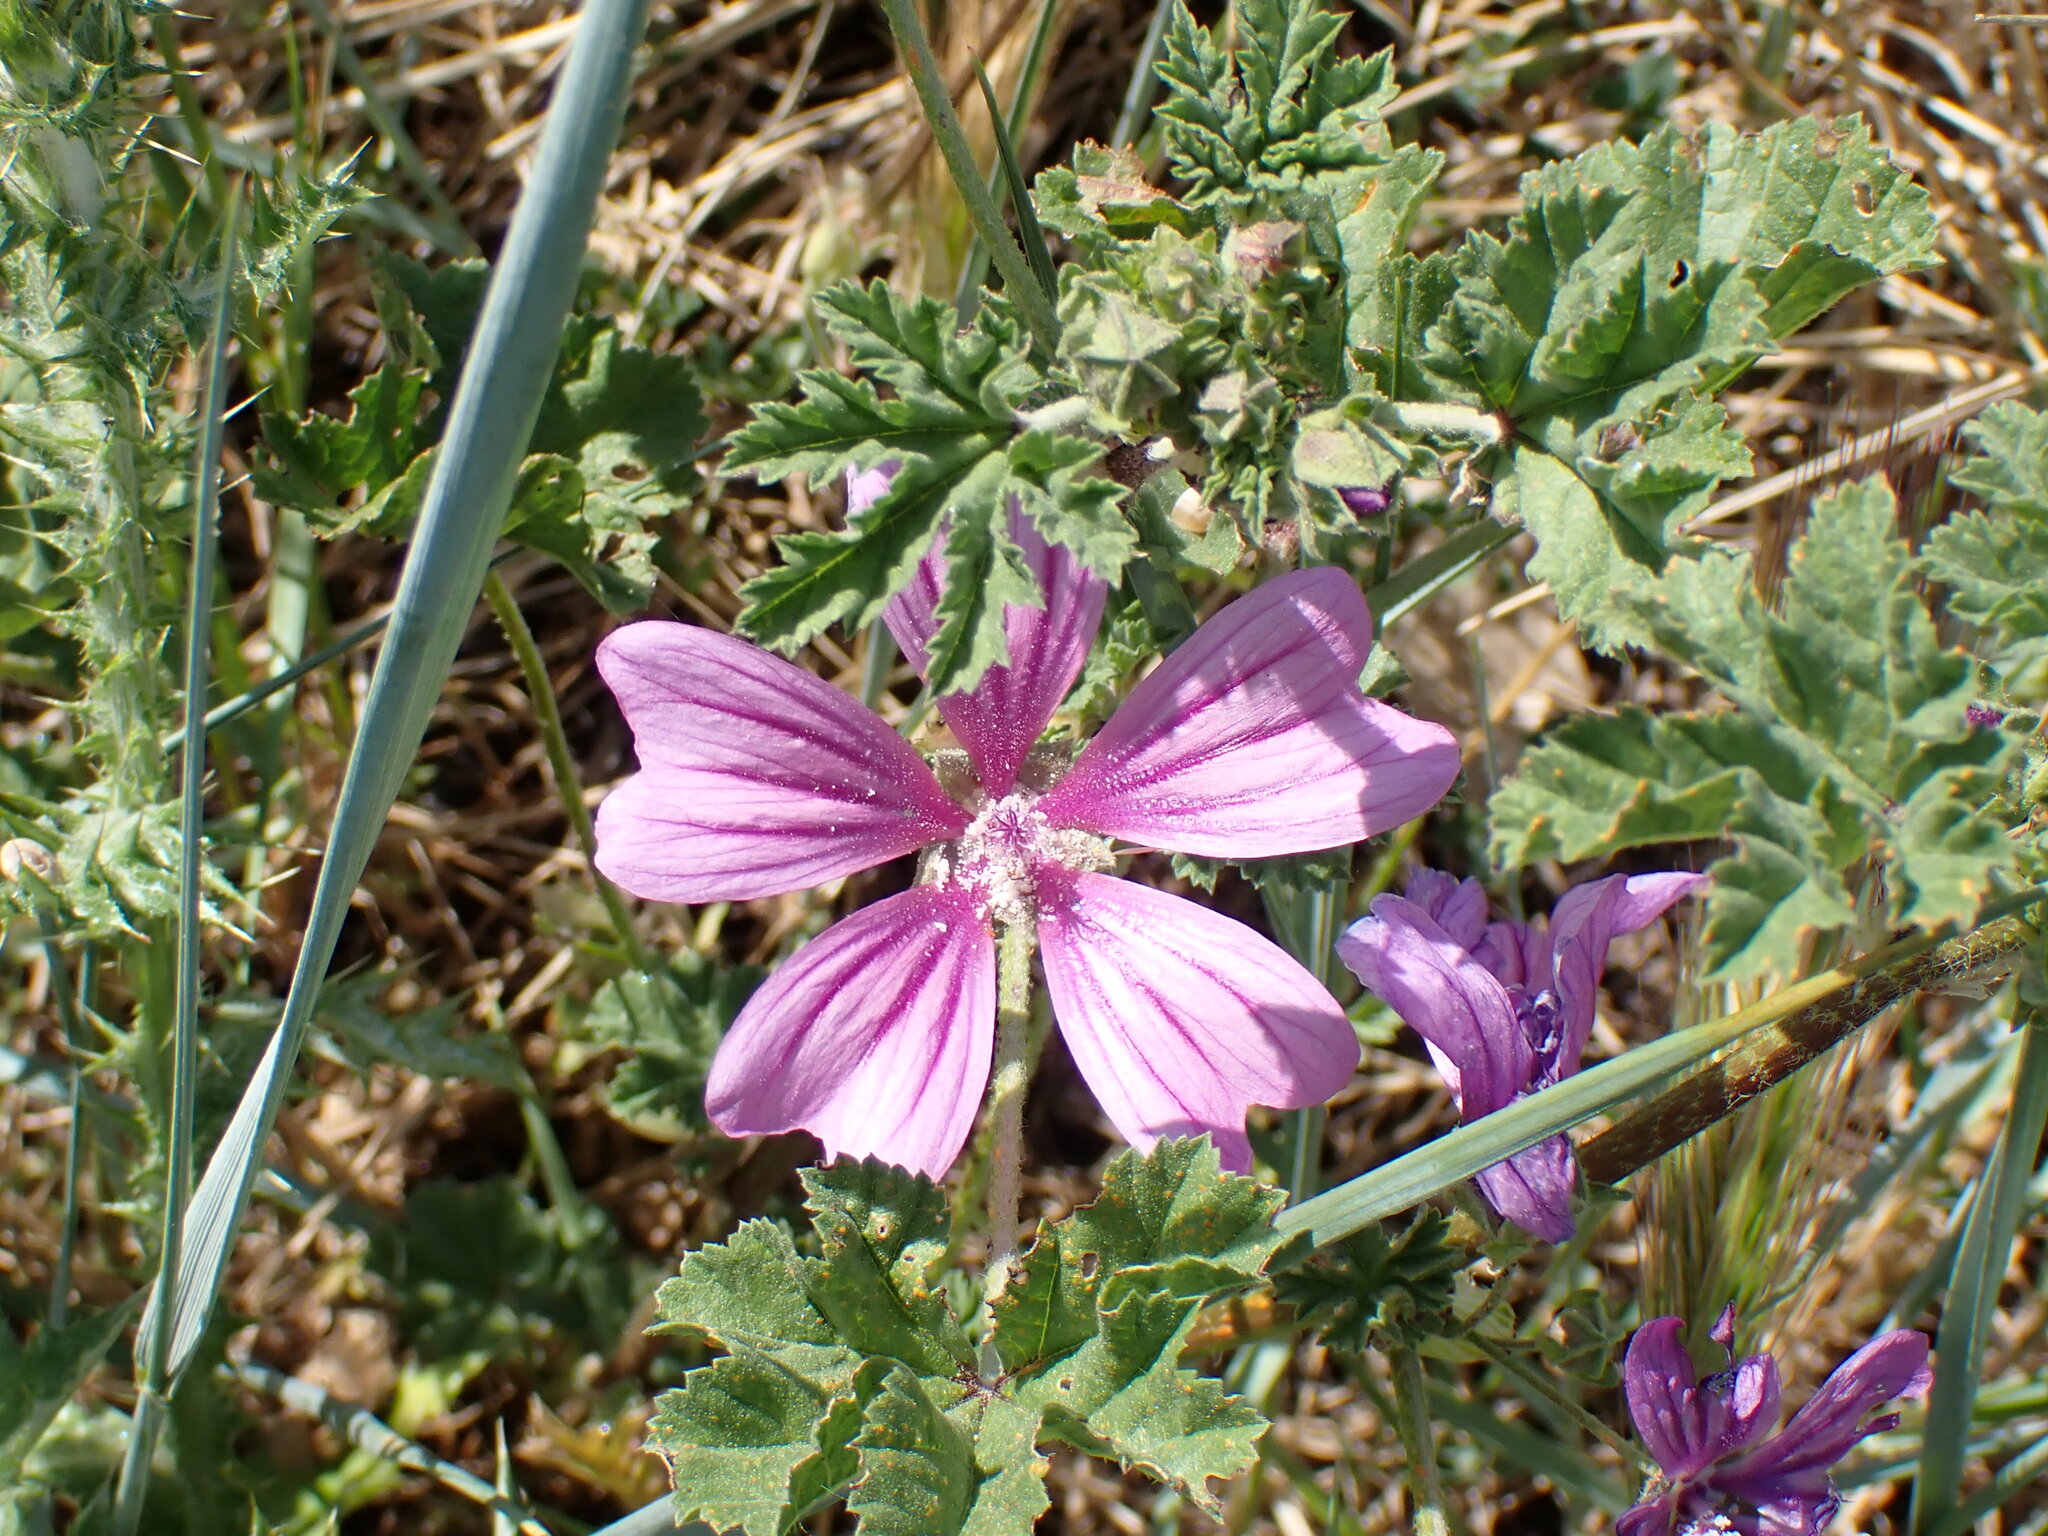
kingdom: Plantae
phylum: Tracheophyta
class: Magnoliopsida
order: Malvales
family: Malvaceae
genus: Malva
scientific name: Malva sylvestris
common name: Common mallow
